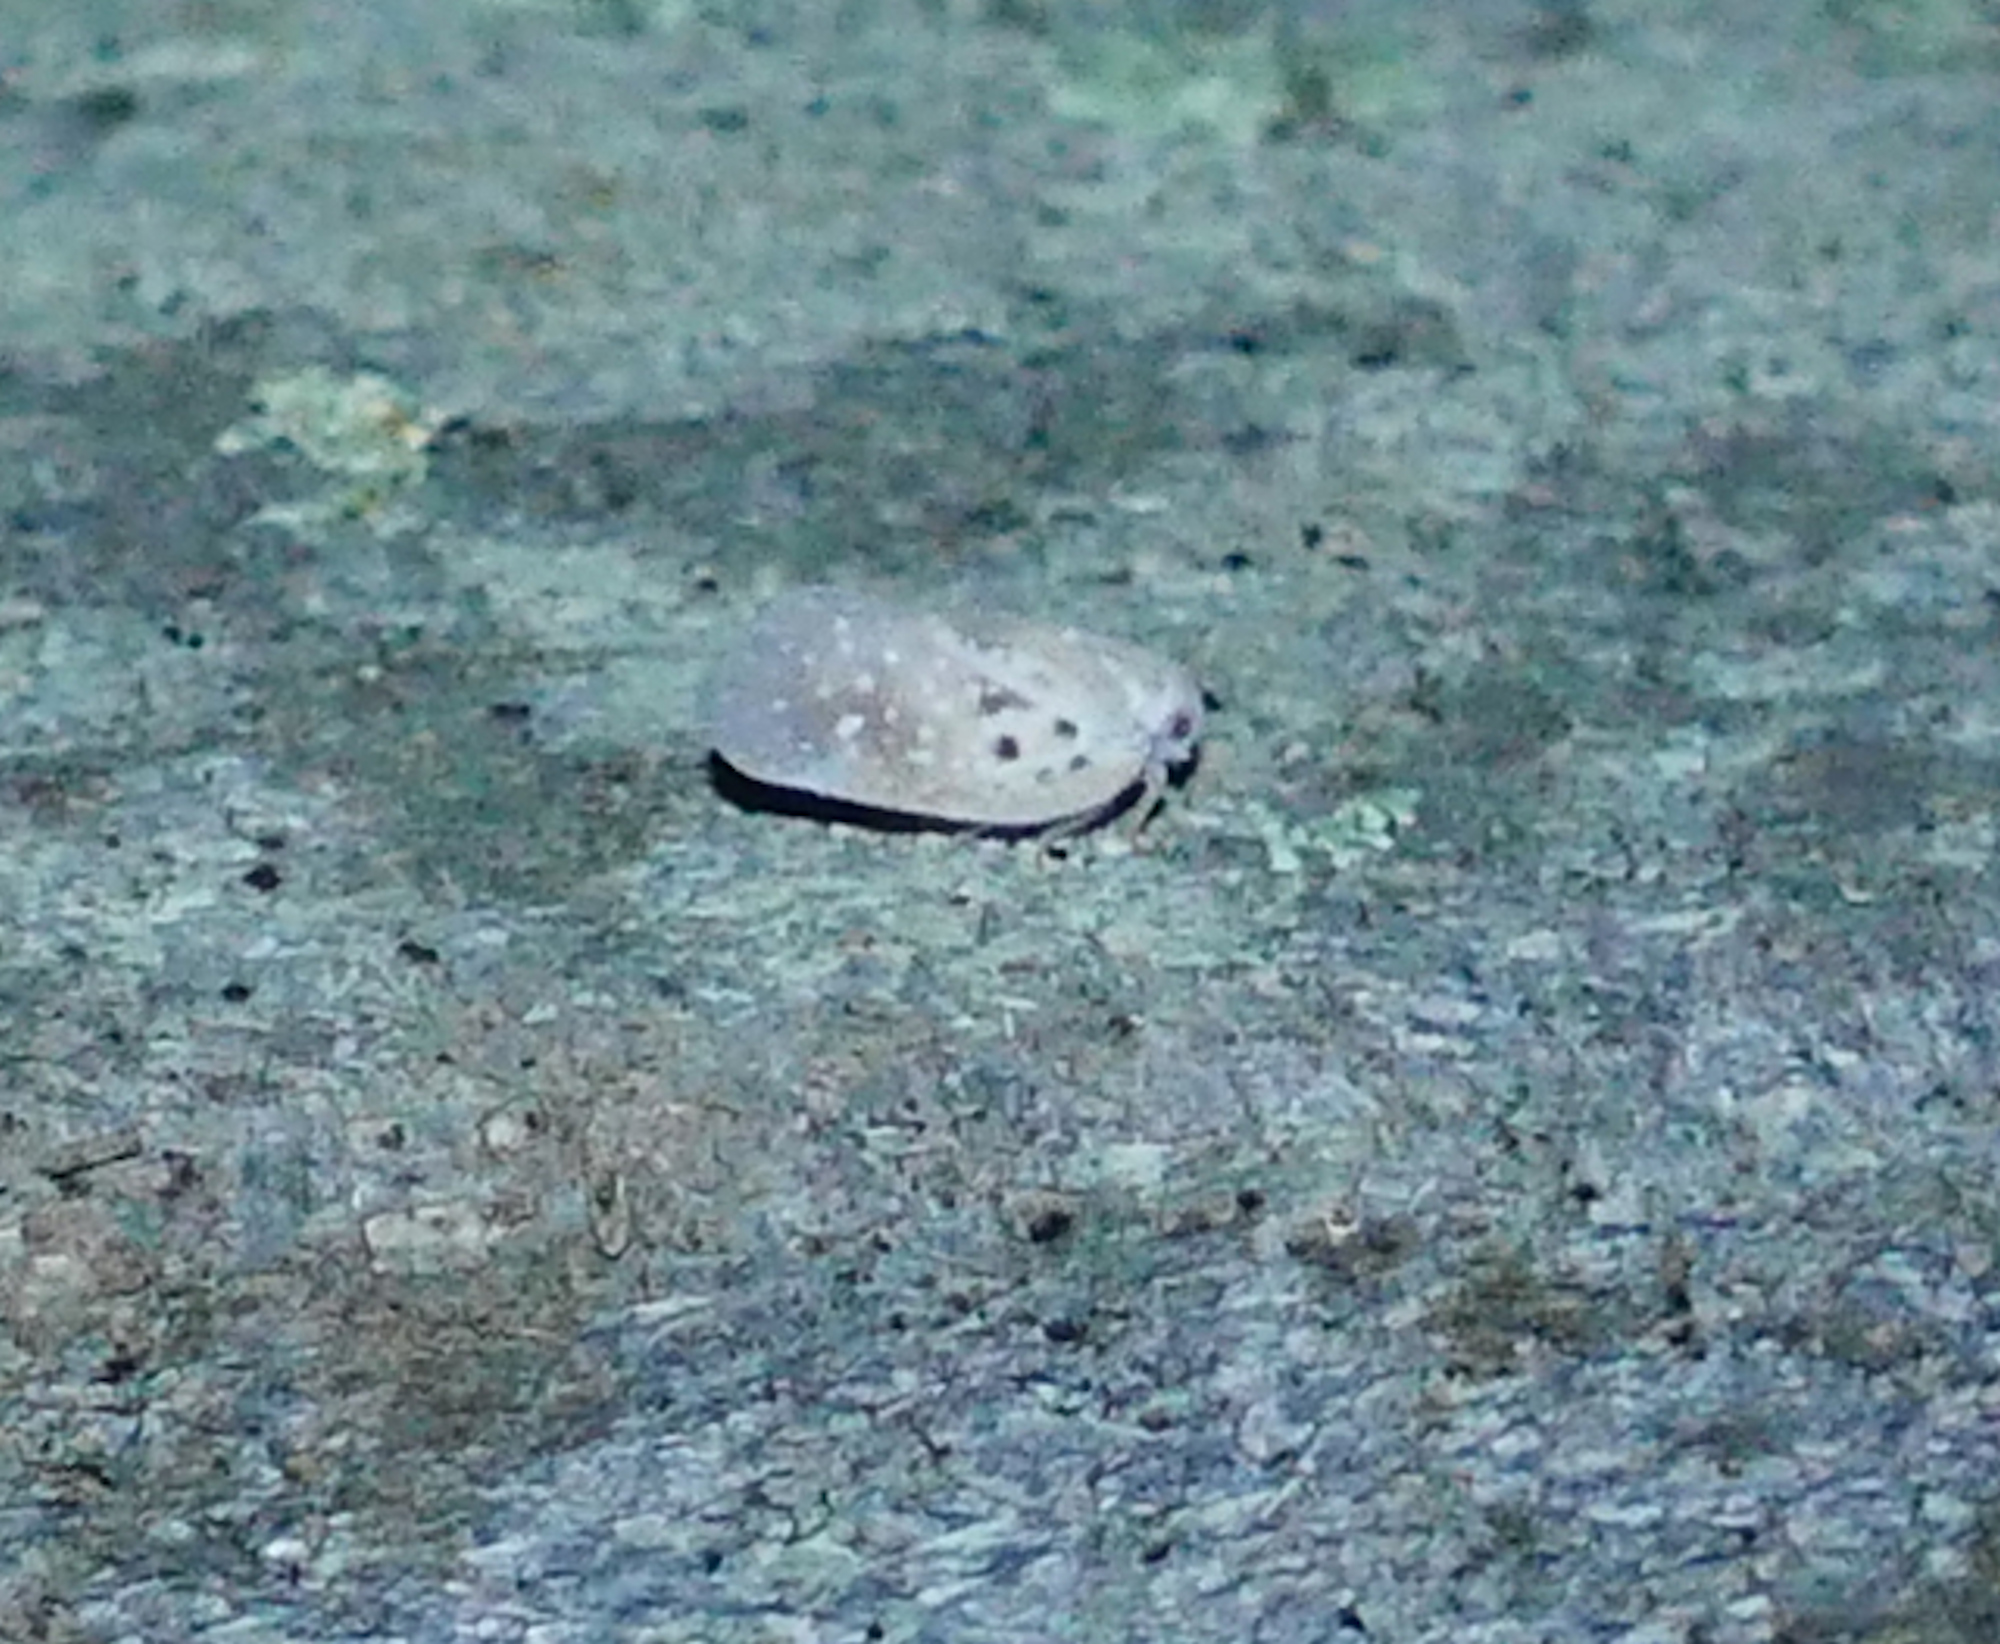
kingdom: Animalia
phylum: Arthropoda
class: Insecta
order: Hemiptera
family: Flatidae
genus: Metcalfa
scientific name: Metcalfa pruinosa
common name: Citrus flatid planthopper
